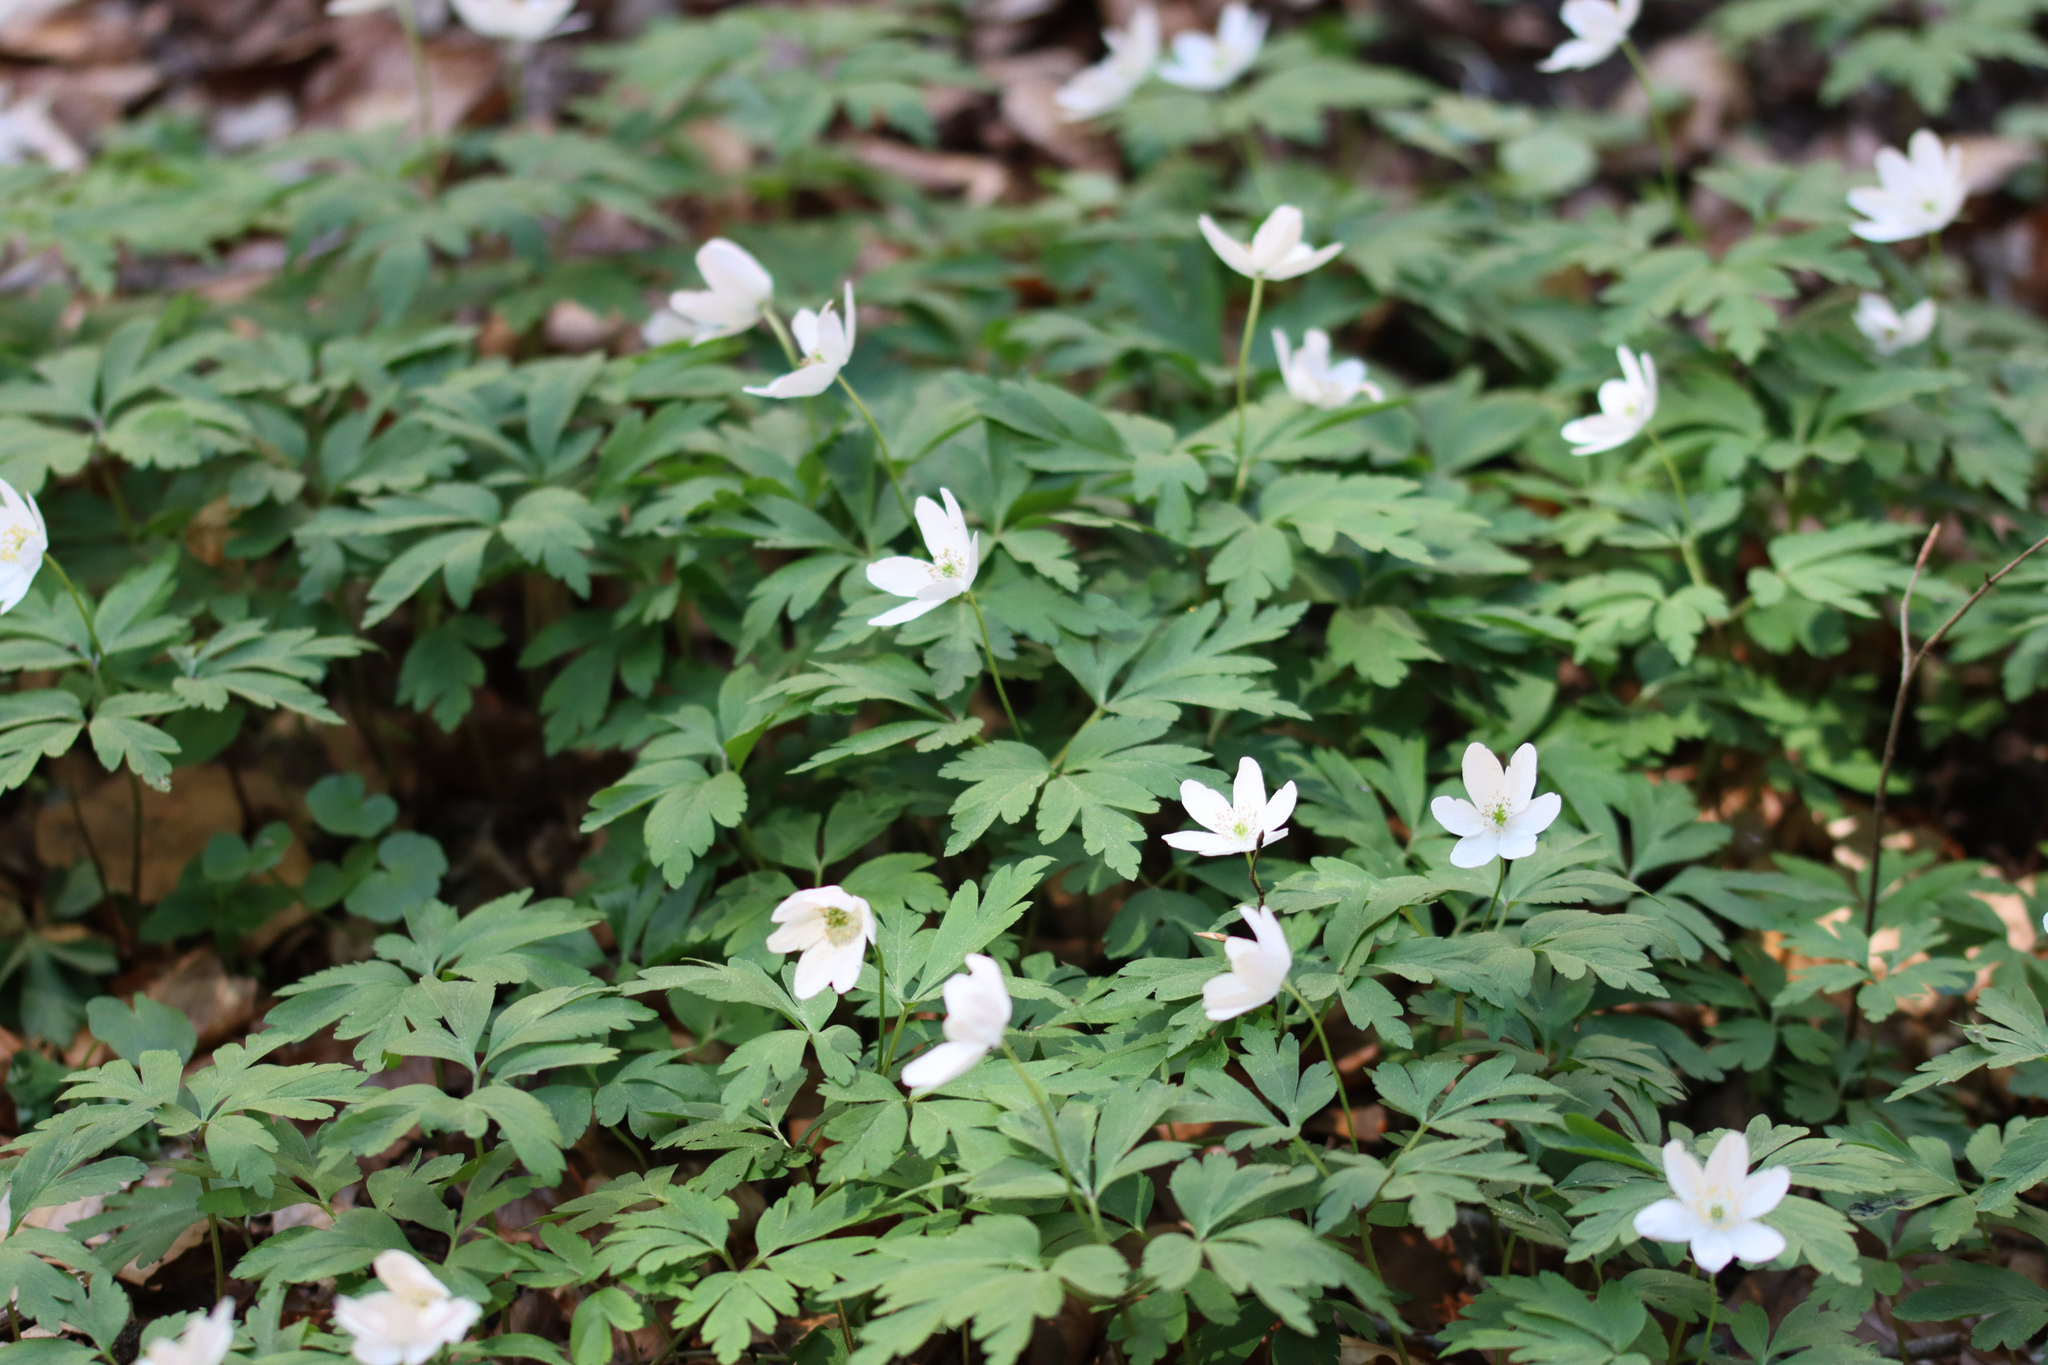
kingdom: Plantae
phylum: Tracheophyta
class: Magnoliopsida
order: Ranunculales
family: Ranunculaceae
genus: Anemone
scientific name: Anemone nemorosa
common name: Wood anemone
